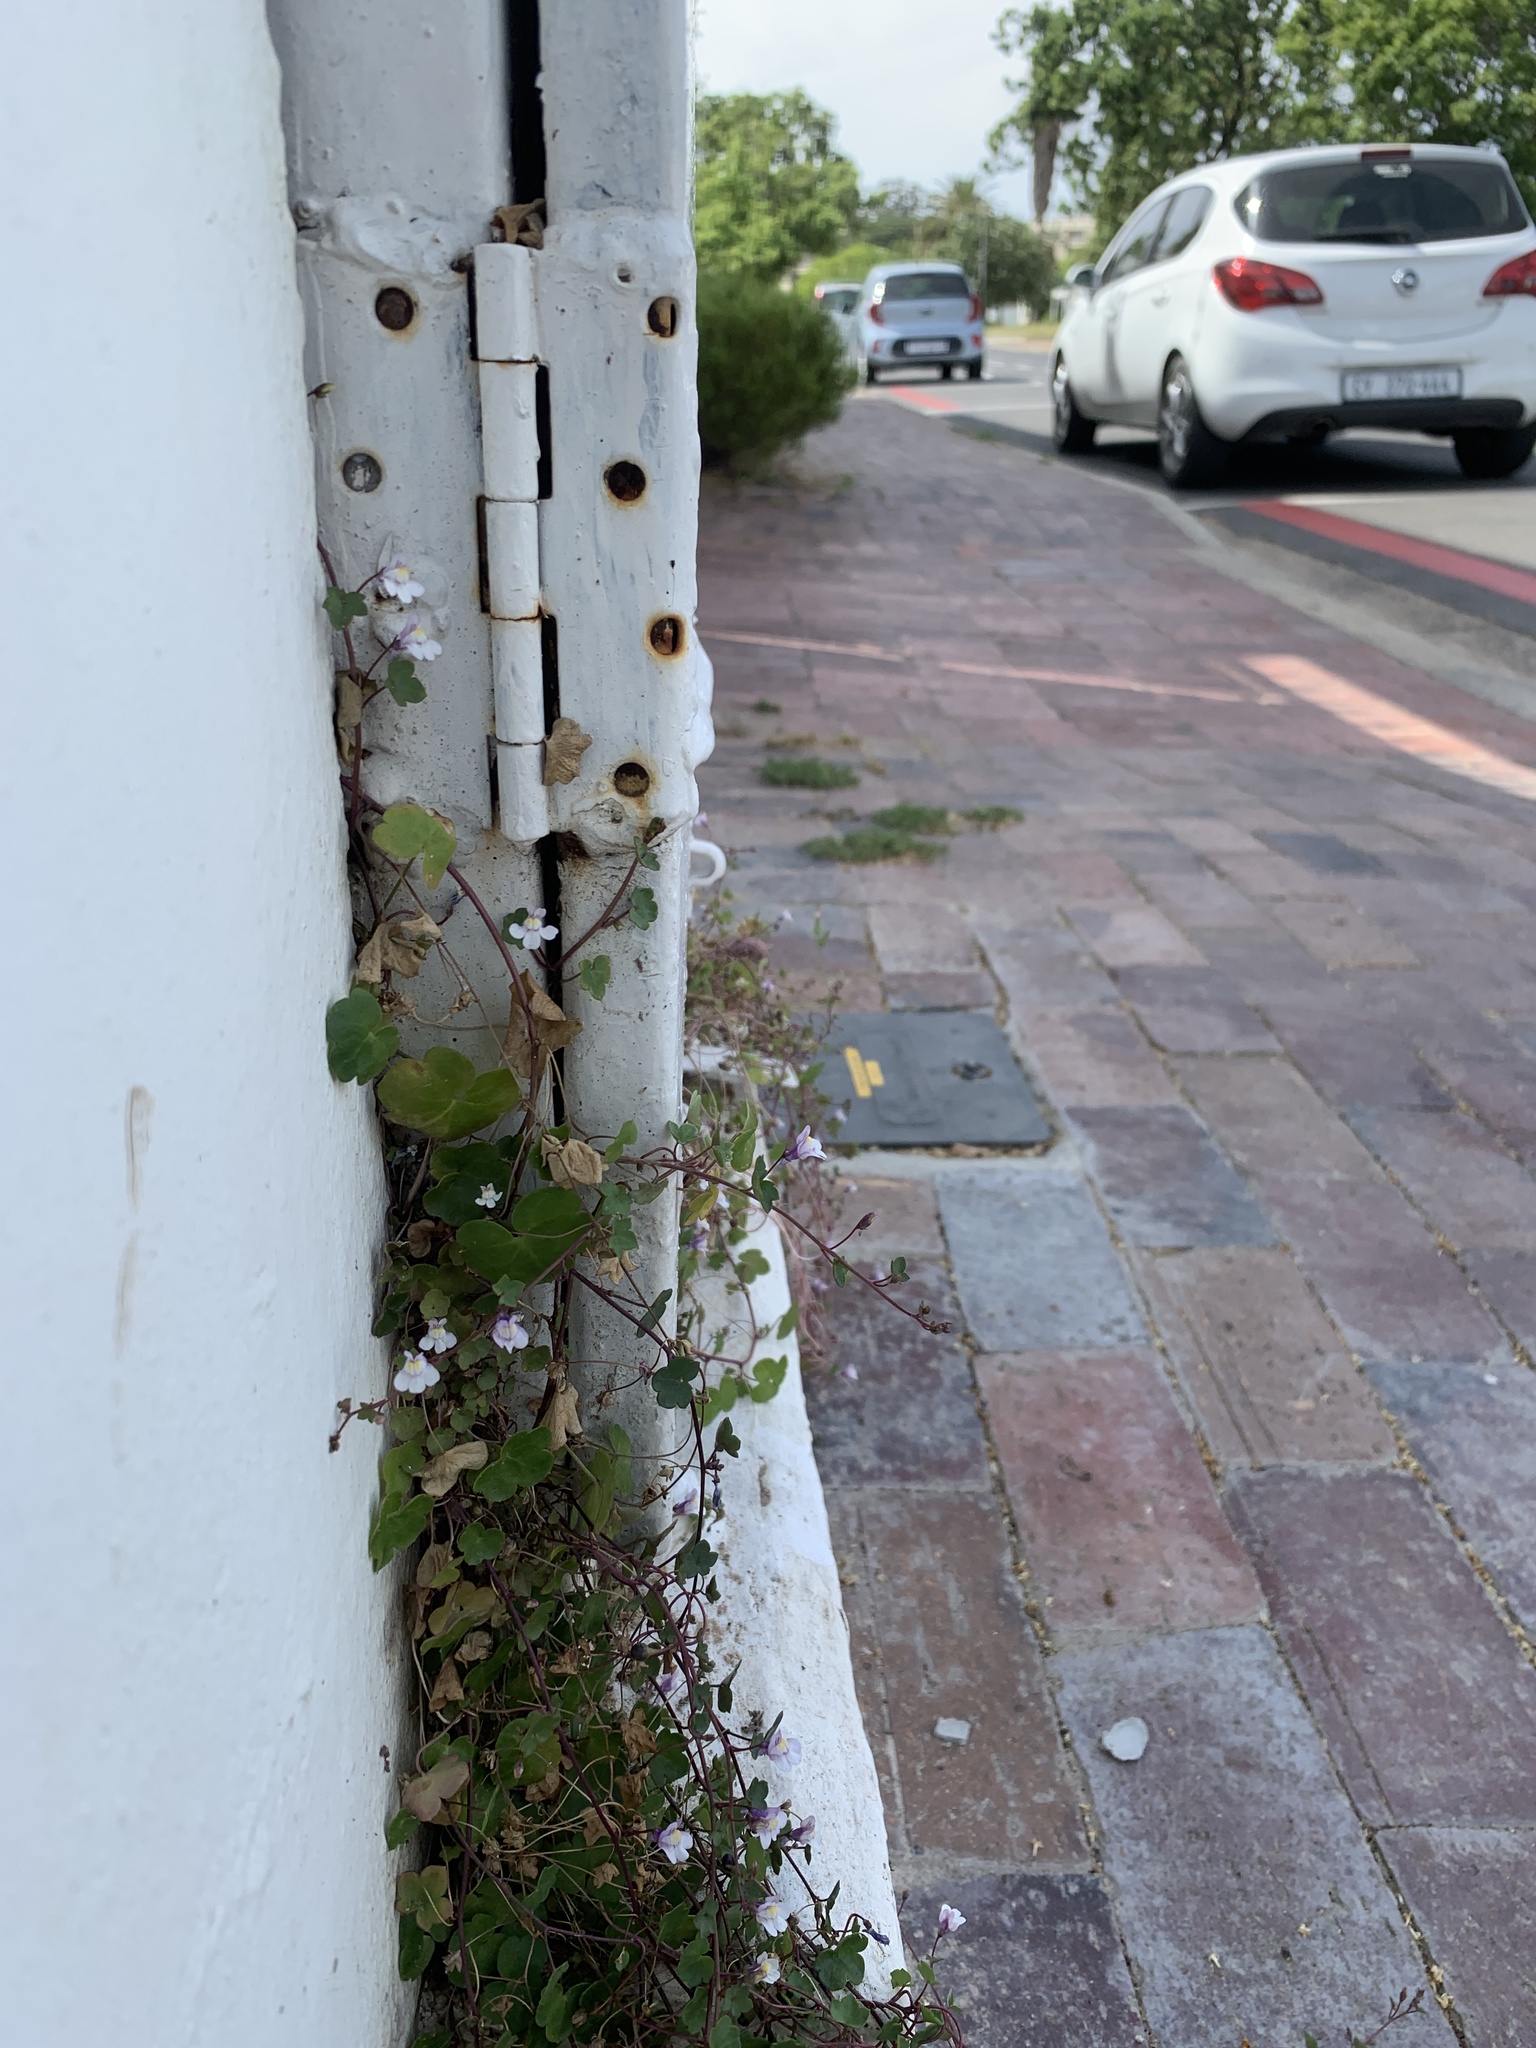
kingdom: Plantae
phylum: Tracheophyta
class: Magnoliopsida
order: Lamiales
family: Plantaginaceae
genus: Cymbalaria
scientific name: Cymbalaria muralis
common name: Ivy-leaved toadflax
